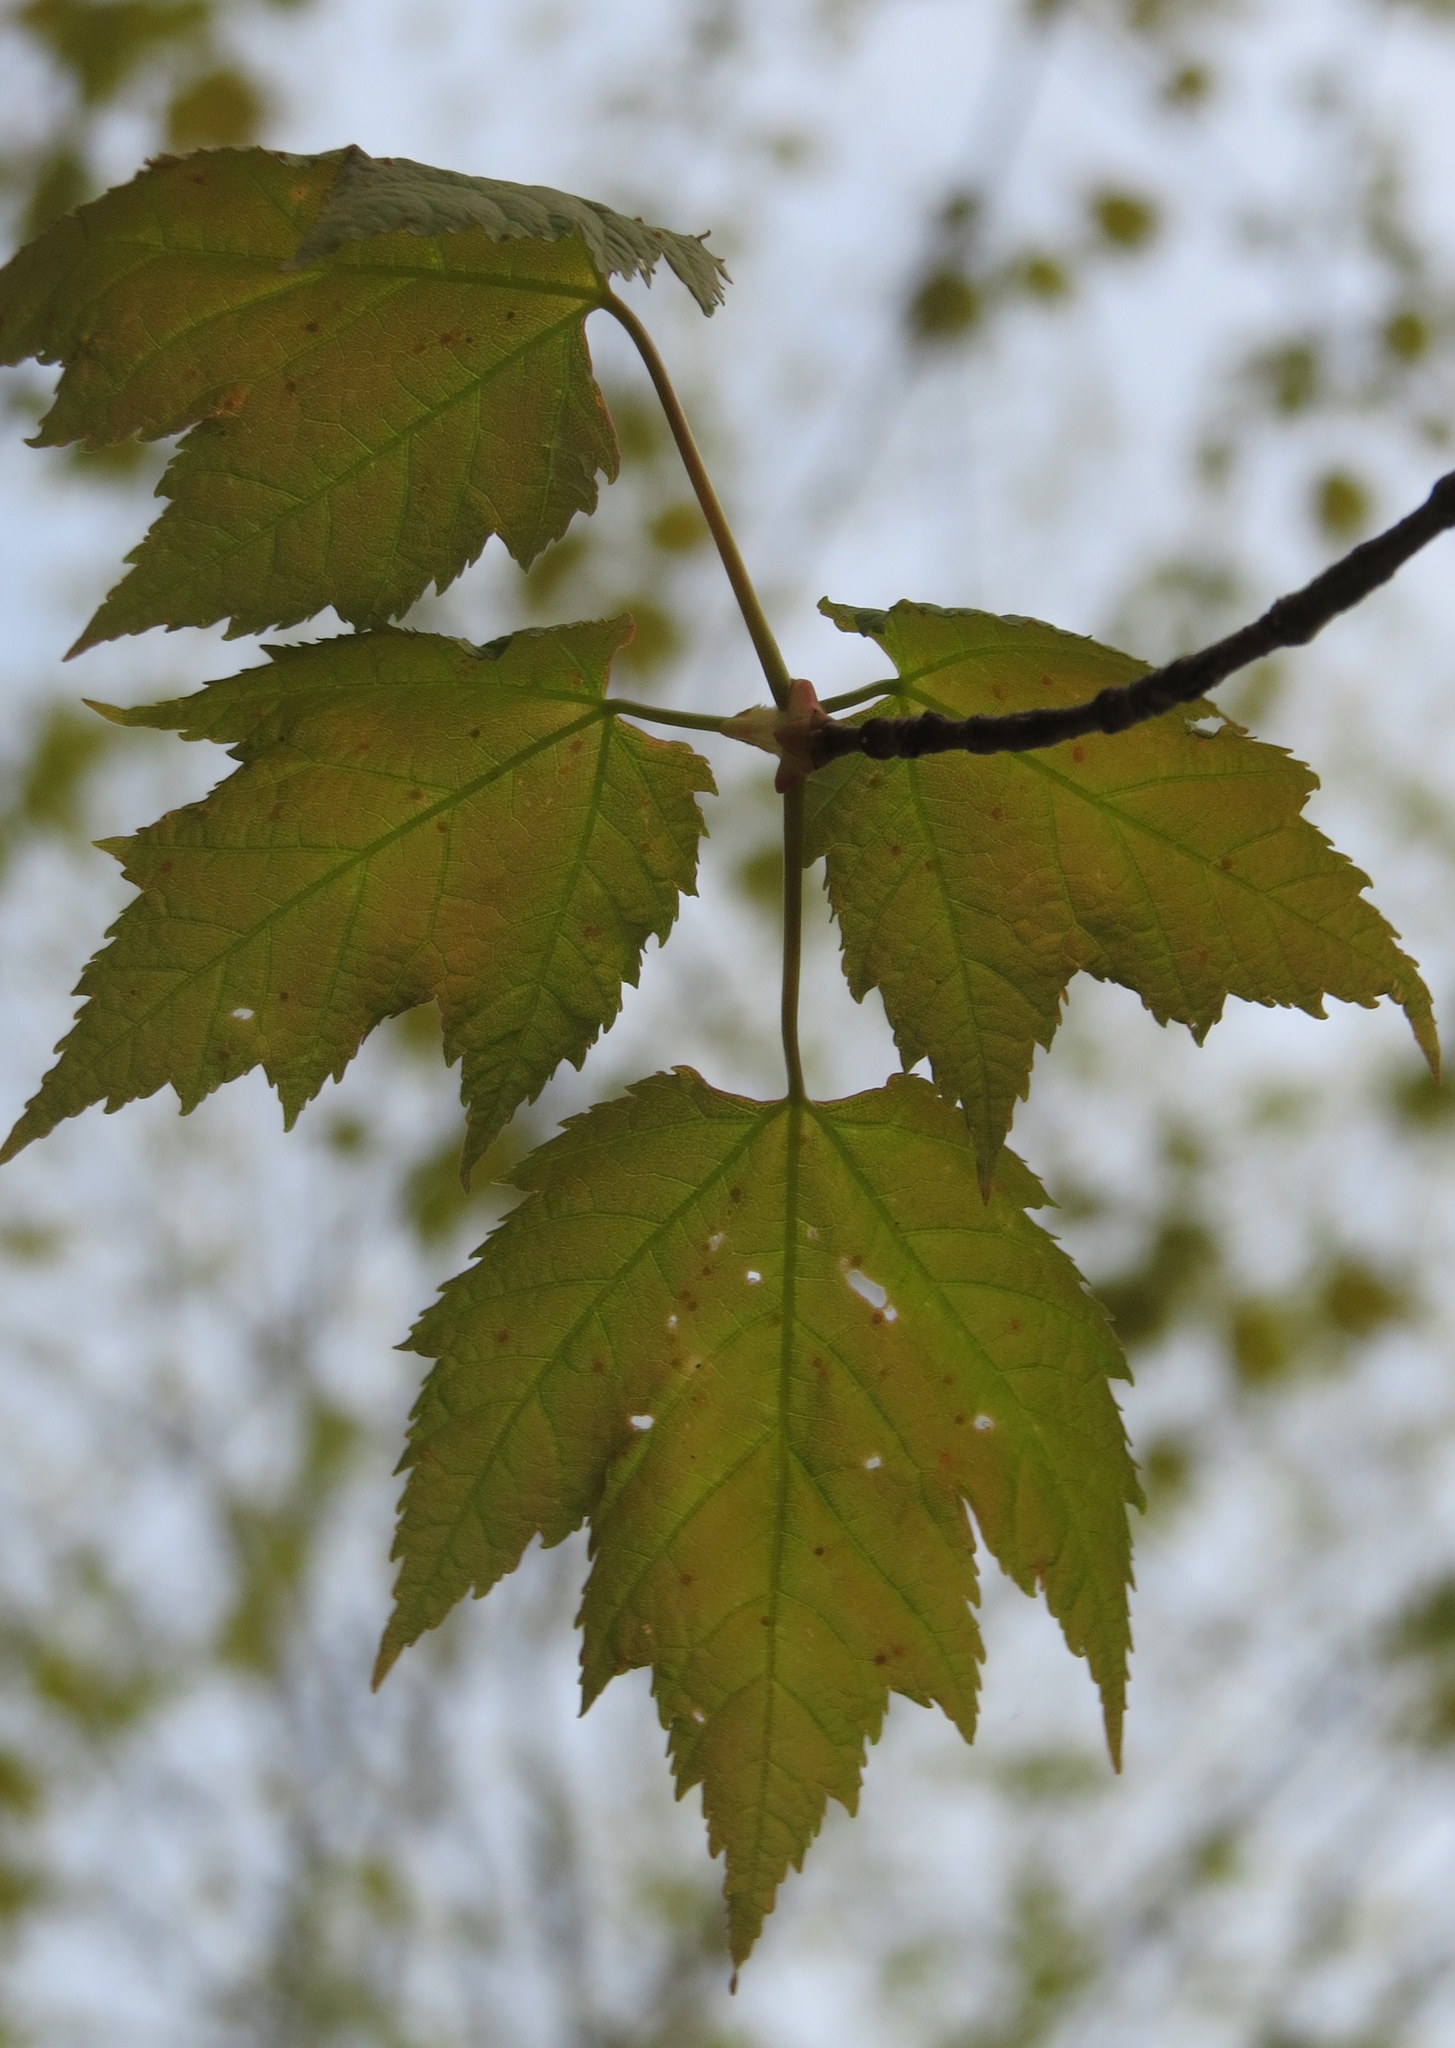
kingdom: Plantae
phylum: Tracheophyta
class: Magnoliopsida
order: Sapindales
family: Sapindaceae
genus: Acer
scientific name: Acer rubrum
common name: Red maple
